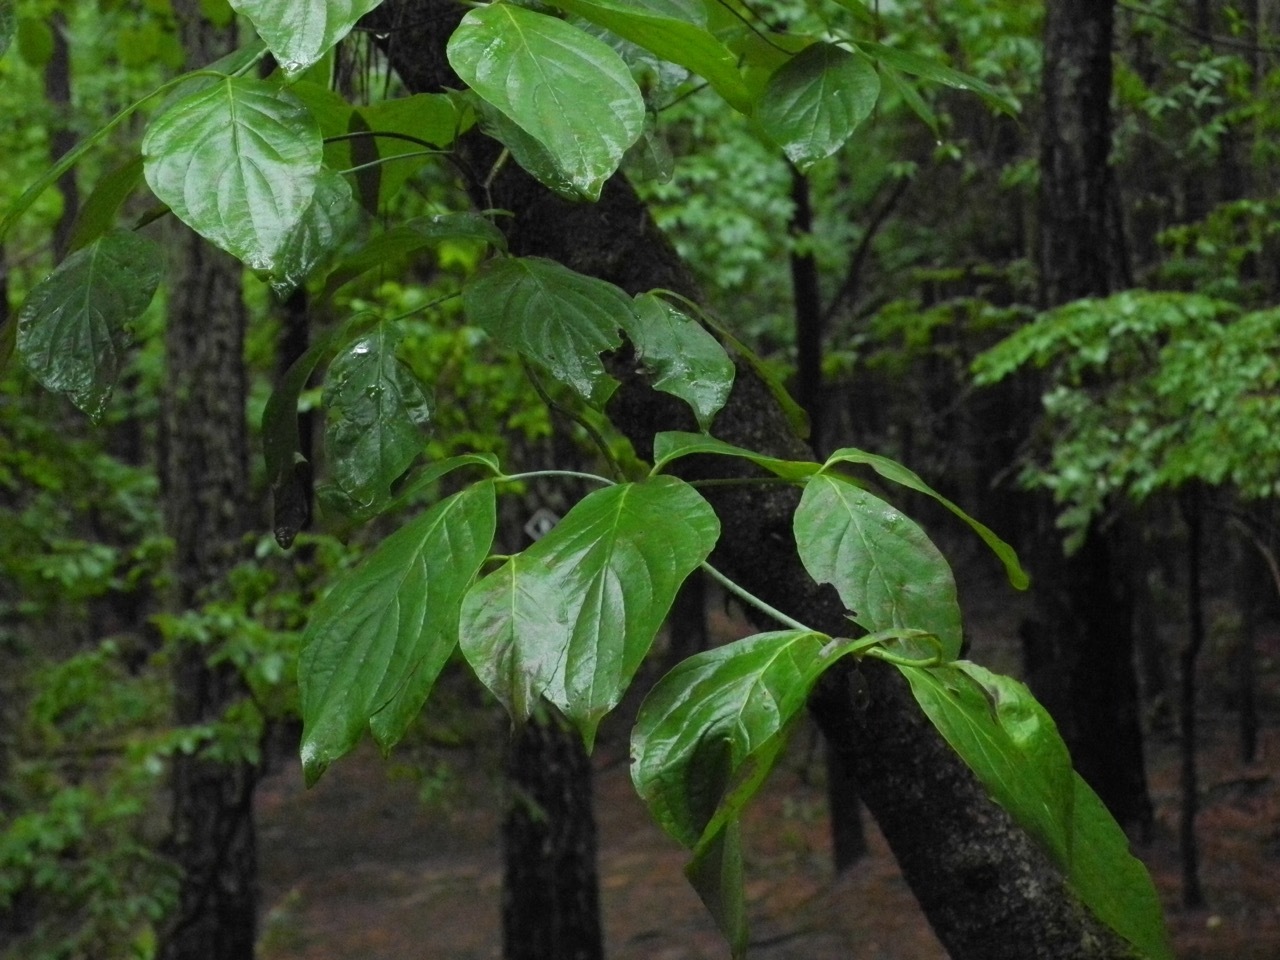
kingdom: Plantae
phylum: Tracheophyta
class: Magnoliopsida
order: Cornales
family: Cornaceae
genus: Cornus
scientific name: Cornus florida
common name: Flowering dogwood
